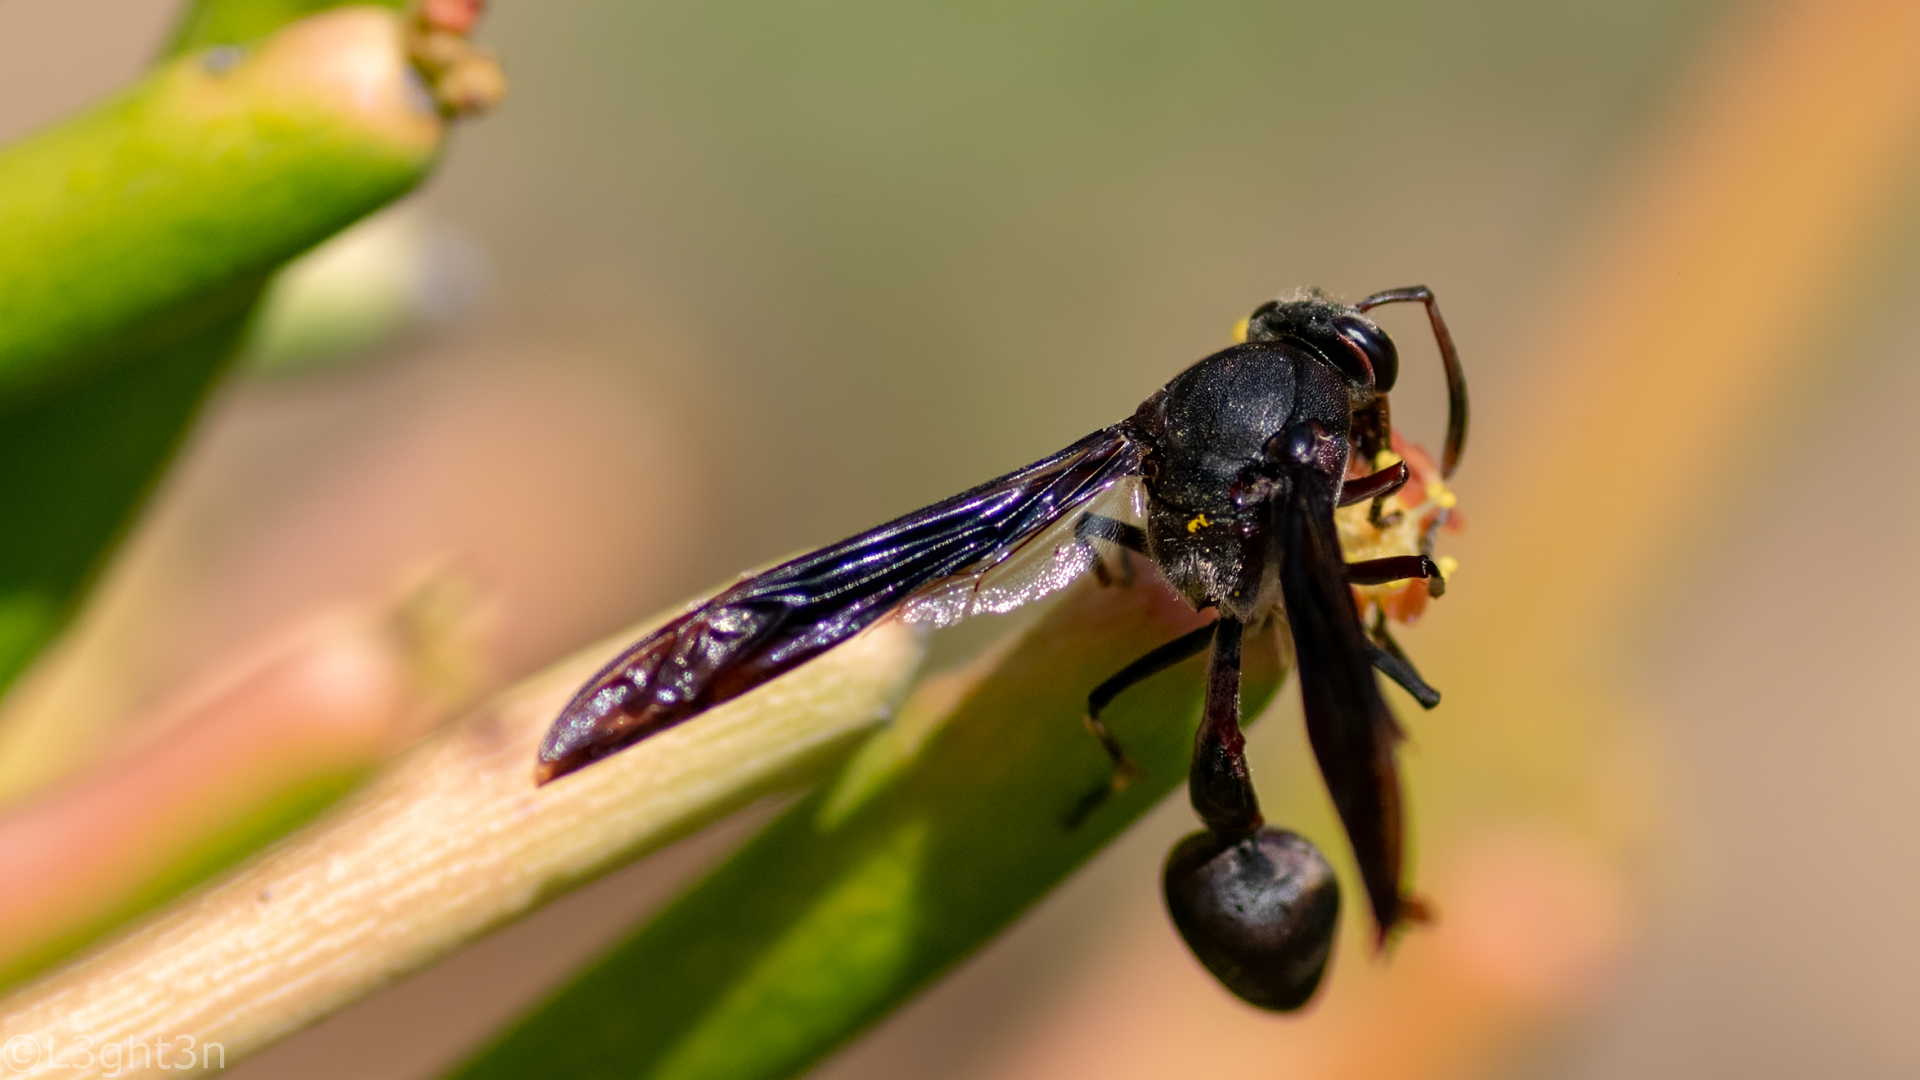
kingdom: Animalia
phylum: Arthropoda
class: Insecta
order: Hymenoptera
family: Eumenidae
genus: Delta
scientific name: Delta emarginatum
